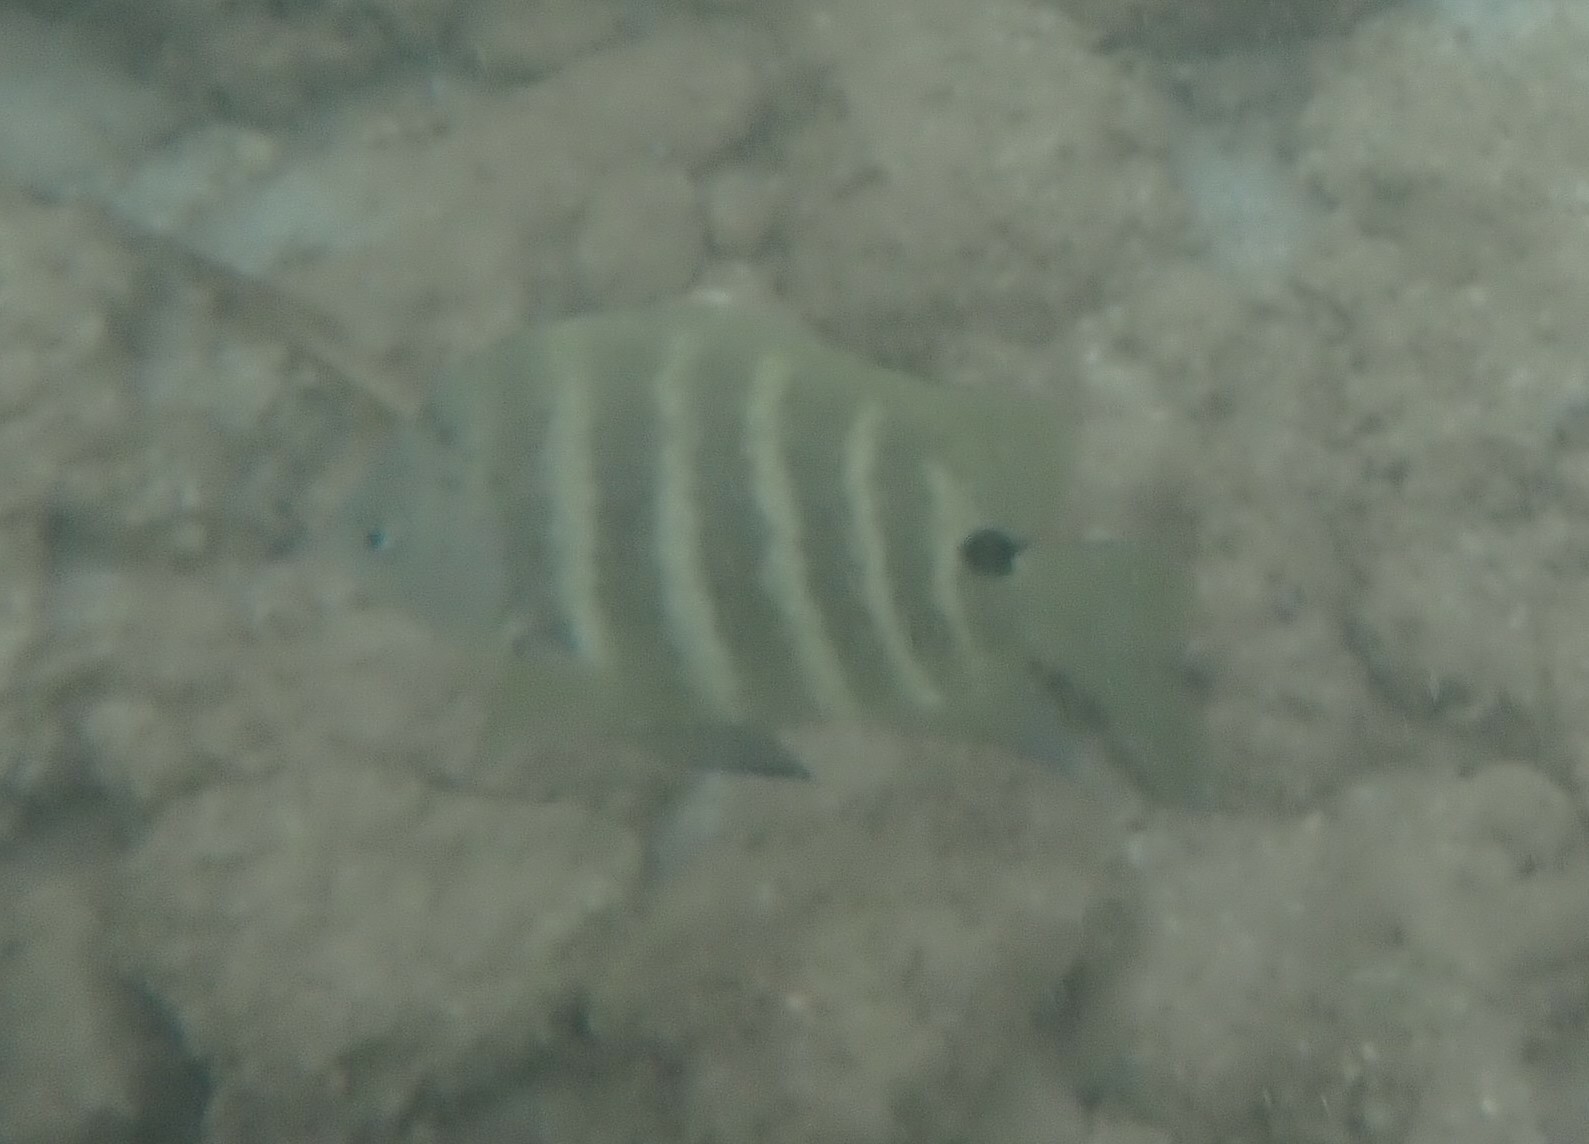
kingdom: Animalia
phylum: Chordata
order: Perciformes
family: Pomacentridae
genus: Abudefduf
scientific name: Abudefduf sordidus
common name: Blackspot sergeant
